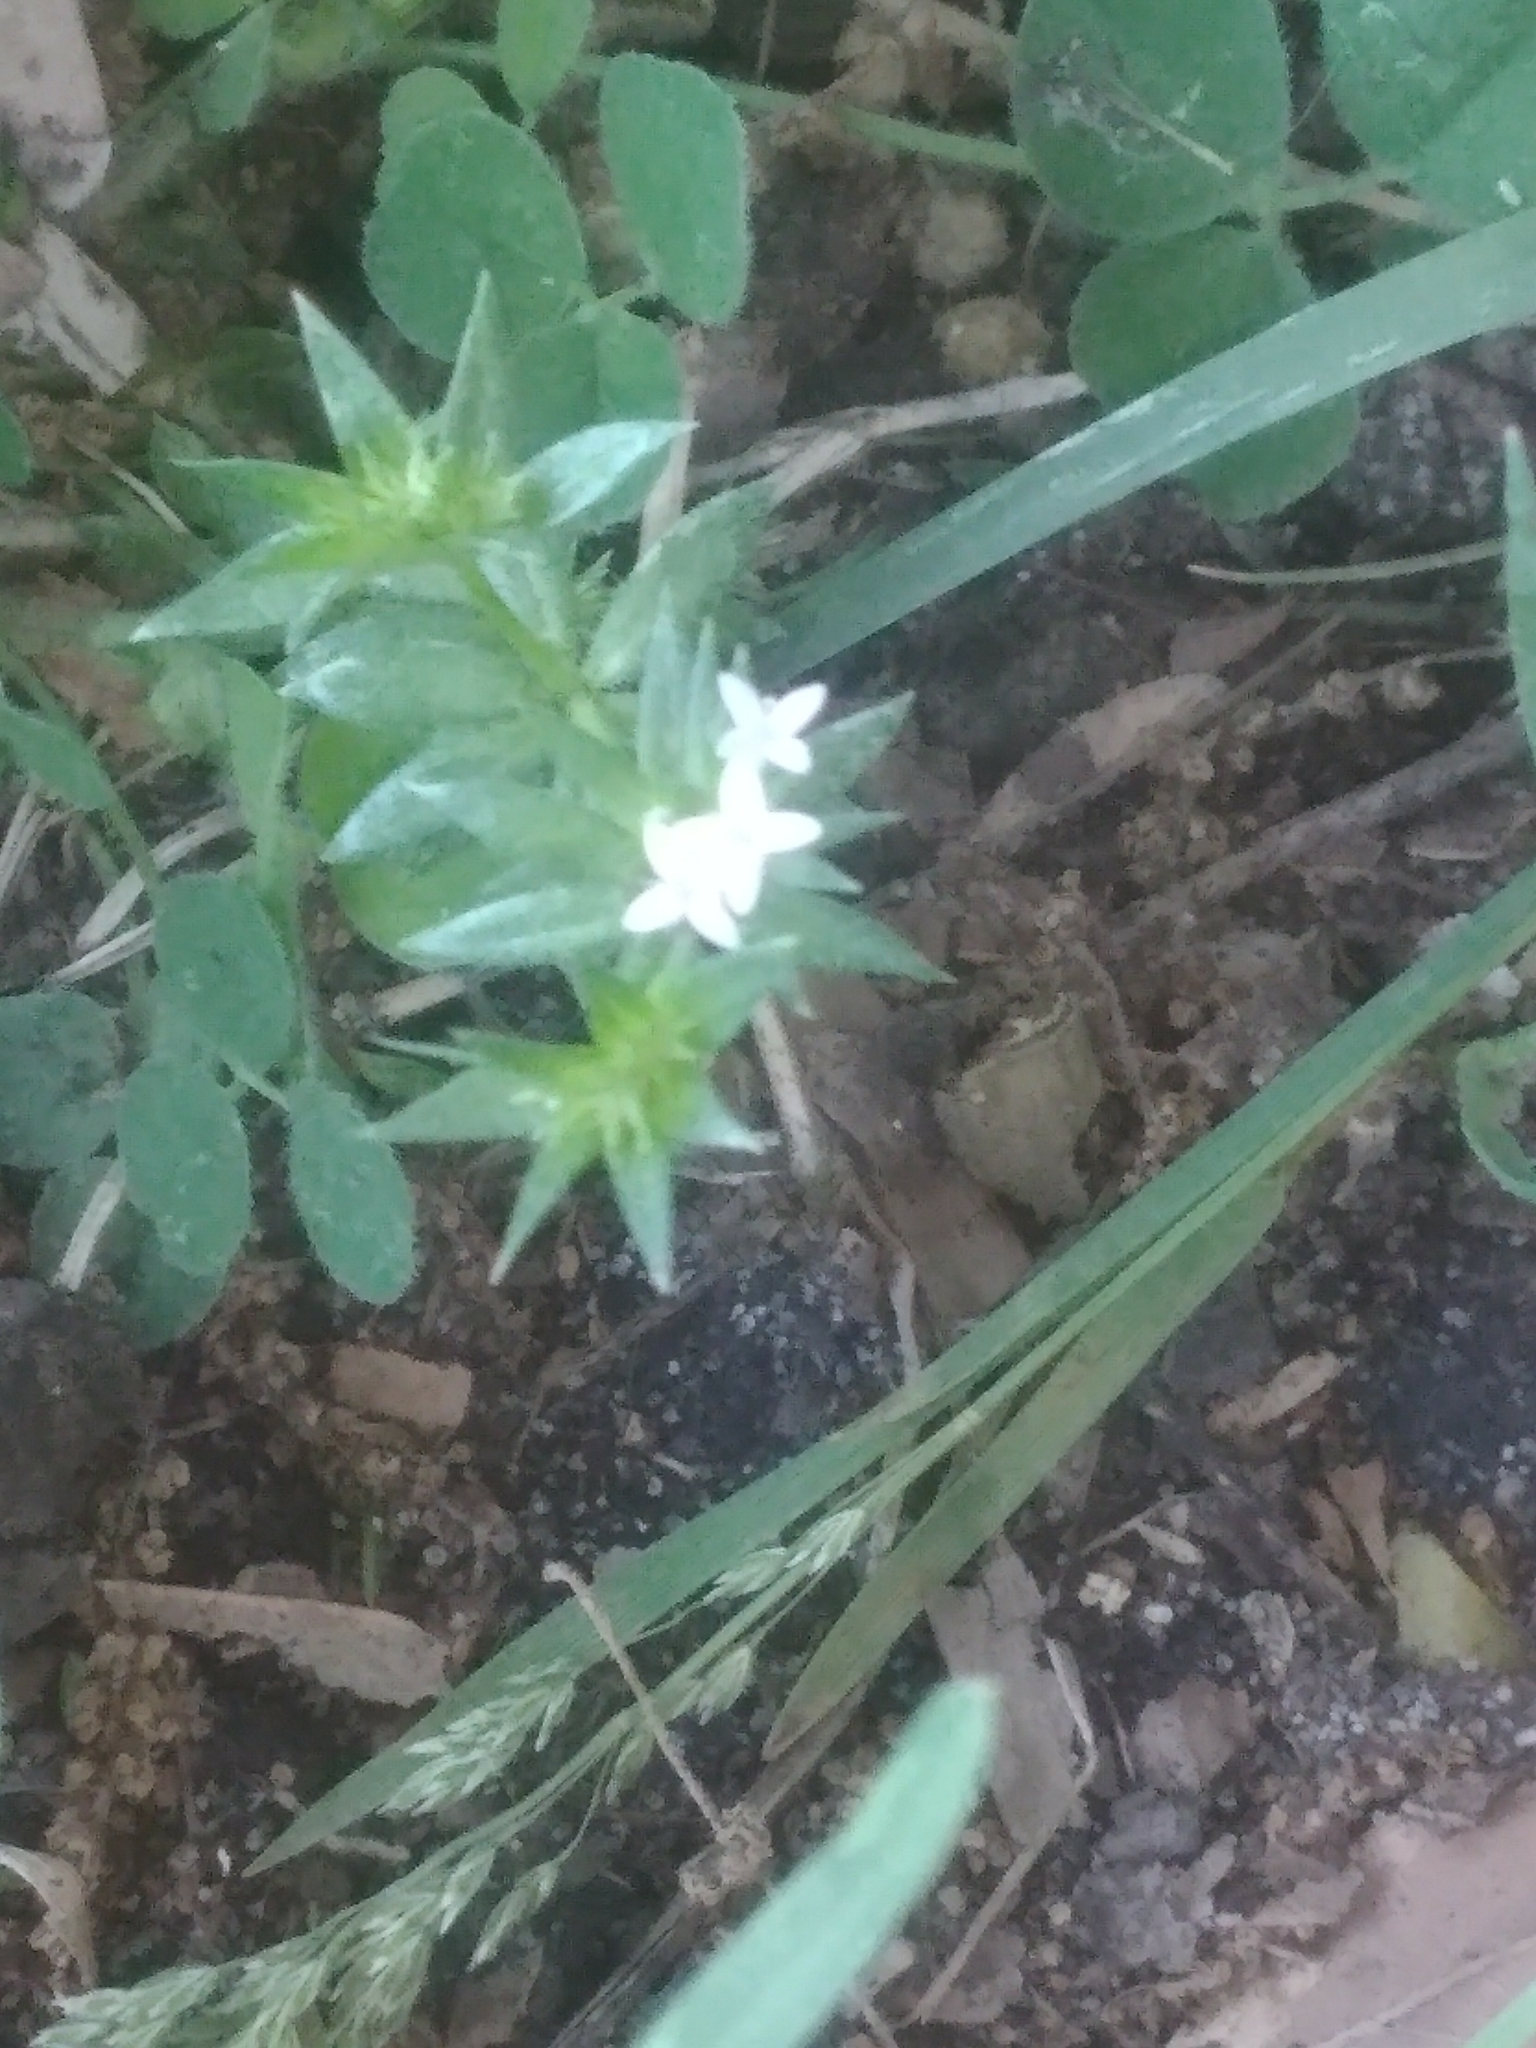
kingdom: Plantae
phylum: Tracheophyta
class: Magnoliopsida
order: Gentianales
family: Rubiaceae
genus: Sherardia
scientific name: Sherardia arvensis
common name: Field madder
